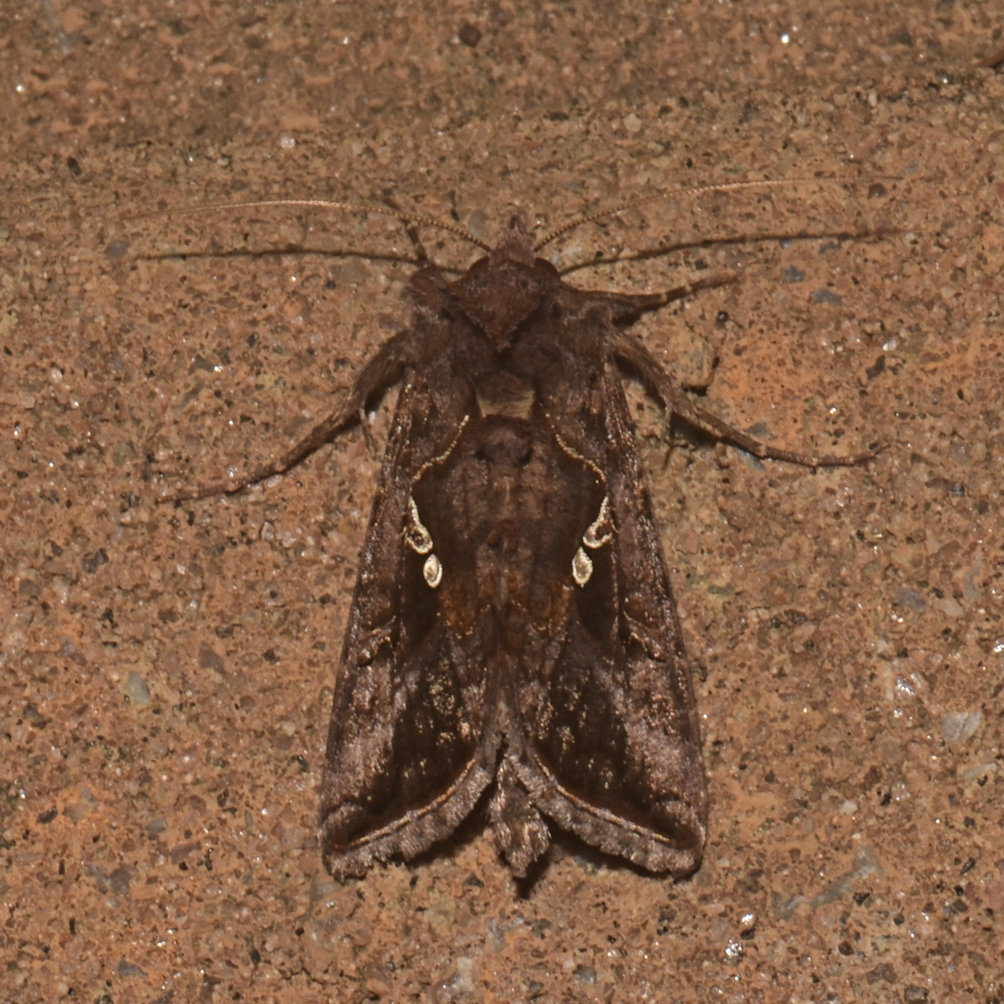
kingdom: Animalia
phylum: Arthropoda
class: Insecta
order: Lepidoptera
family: Noctuidae
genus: Autographa
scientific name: Autographa precationis
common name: Common looper moth
